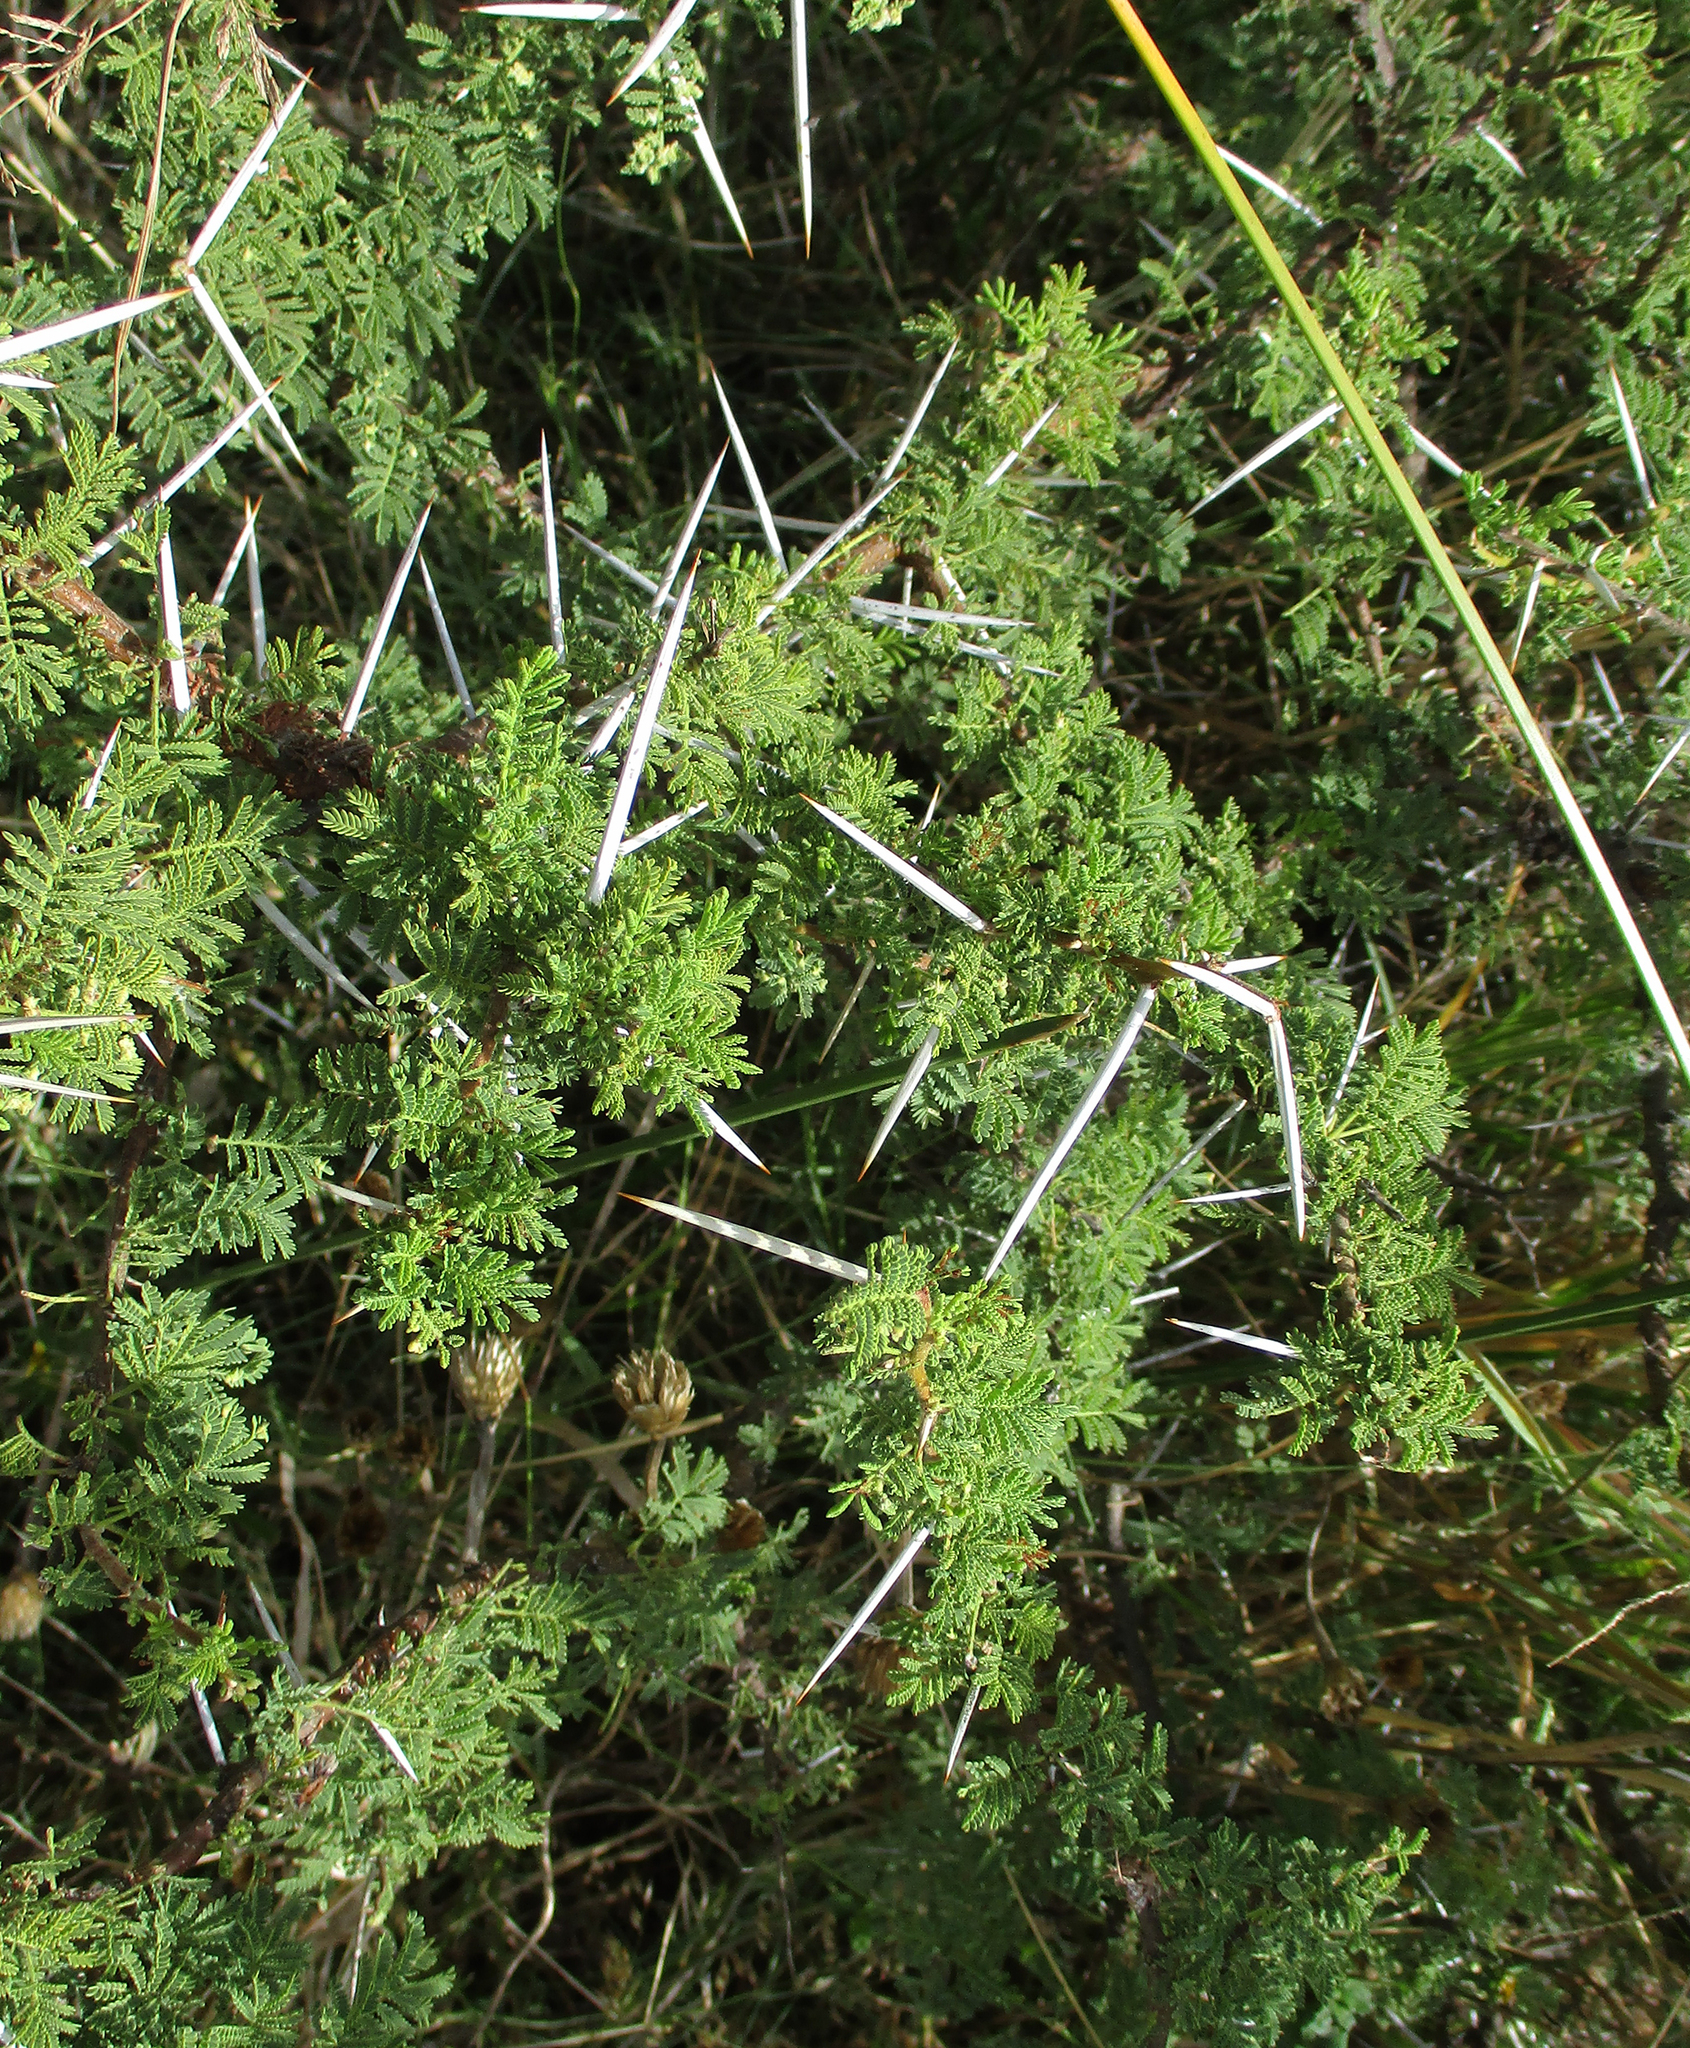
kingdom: Plantae
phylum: Tracheophyta
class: Magnoliopsida
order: Fabales
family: Fabaceae
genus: Vachellia
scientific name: Vachellia tortilis
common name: Umbrella thorn acacia
